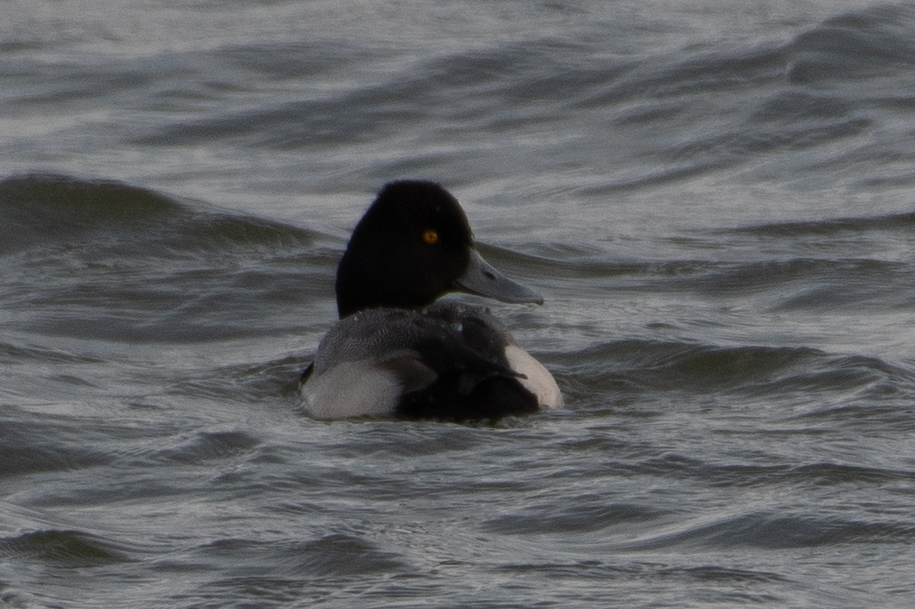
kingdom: Animalia
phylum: Chordata
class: Aves
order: Anseriformes
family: Anatidae
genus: Aythya
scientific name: Aythya affinis
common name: Lesser scaup
